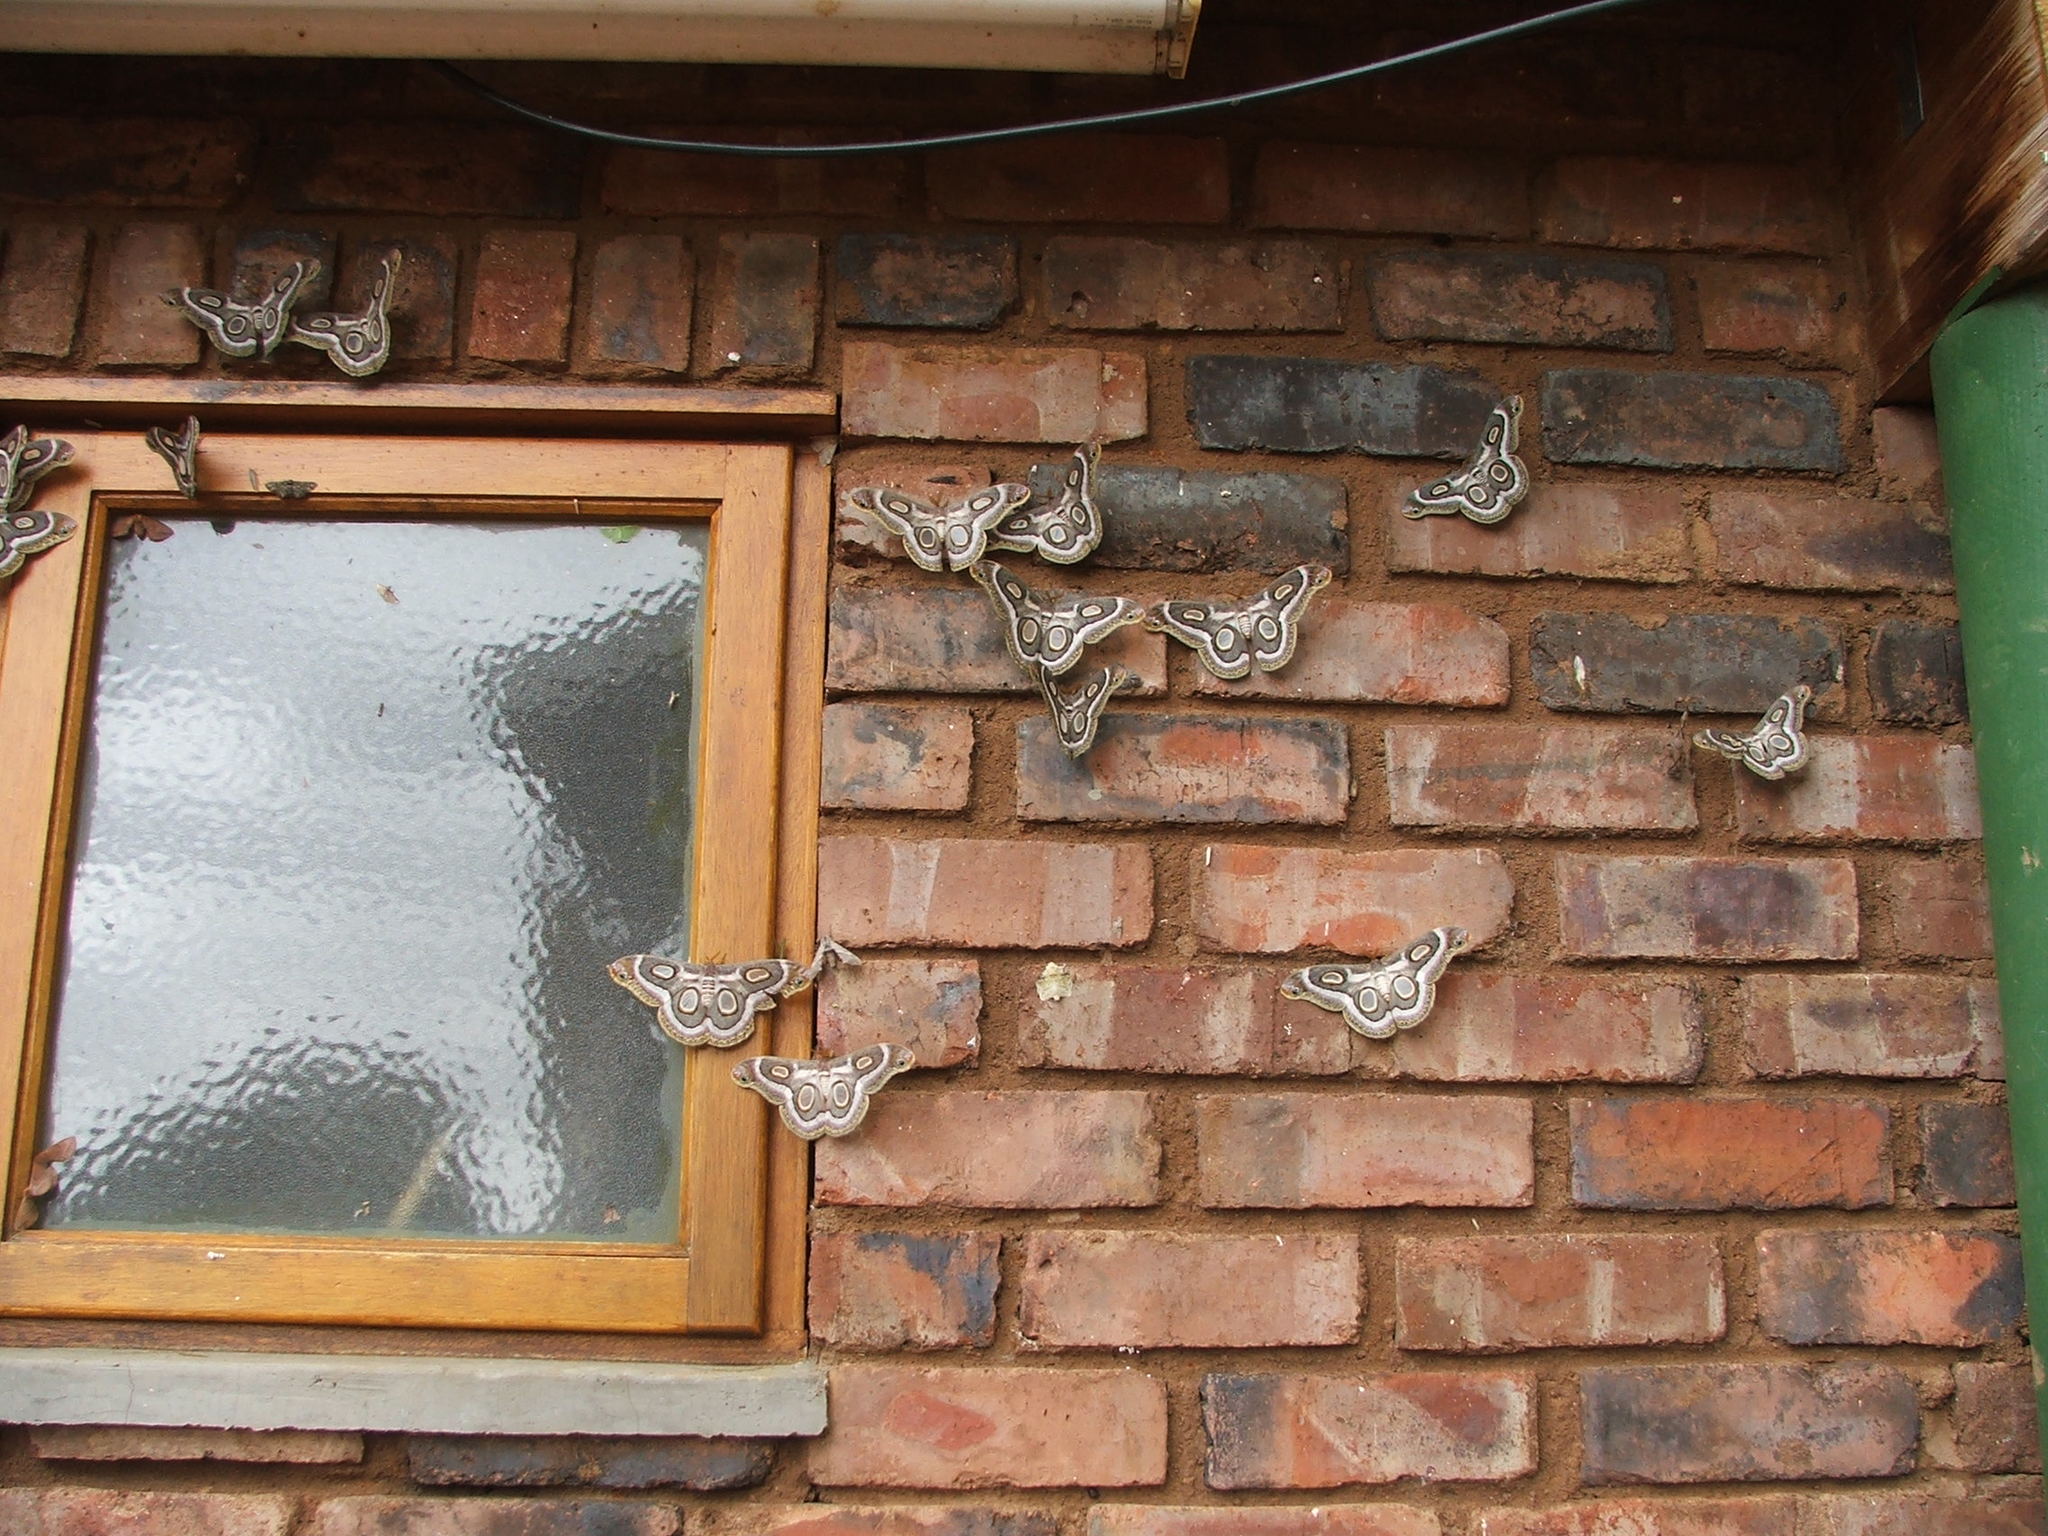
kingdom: Animalia
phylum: Arthropoda
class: Insecta
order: Lepidoptera
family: Saturniidae
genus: Epiphora
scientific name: Epiphora mythimnia
